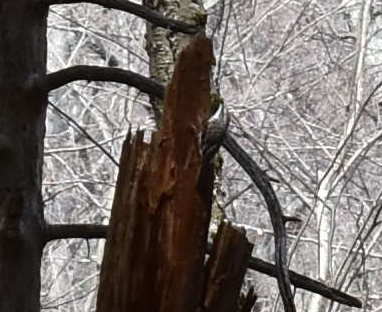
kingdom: Animalia
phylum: Chordata
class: Aves
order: Passeriformes
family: Certhiidae
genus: Certhia
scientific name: Certhia americana
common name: Brown creeper
